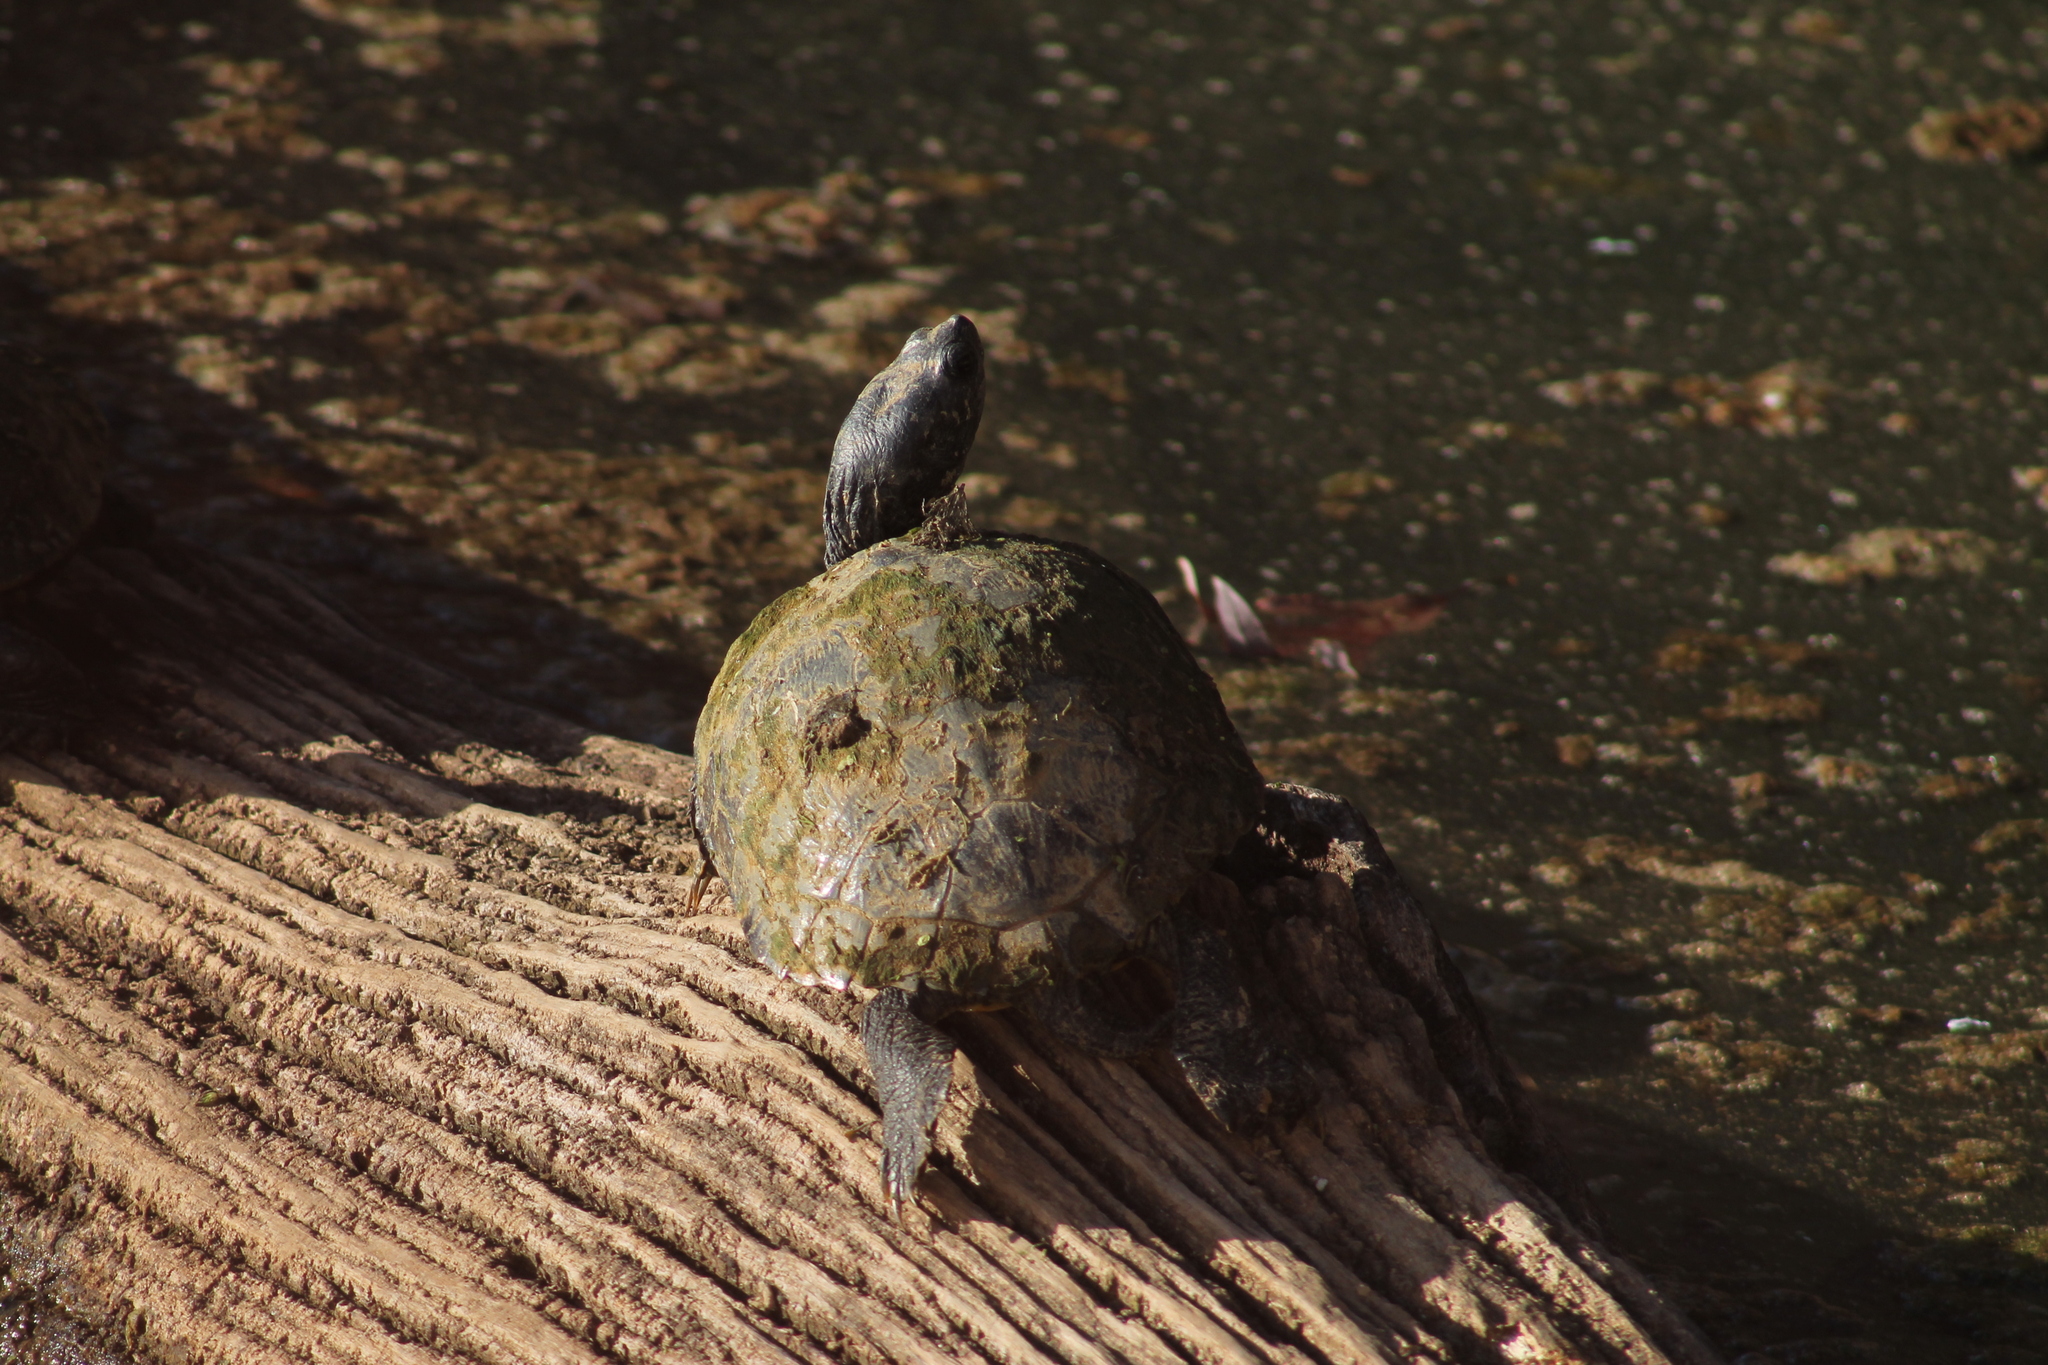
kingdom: Animalia
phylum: Chordata
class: Testudines
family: Emydidae
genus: Trachemys
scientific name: Trachemys scripta
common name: Slider
